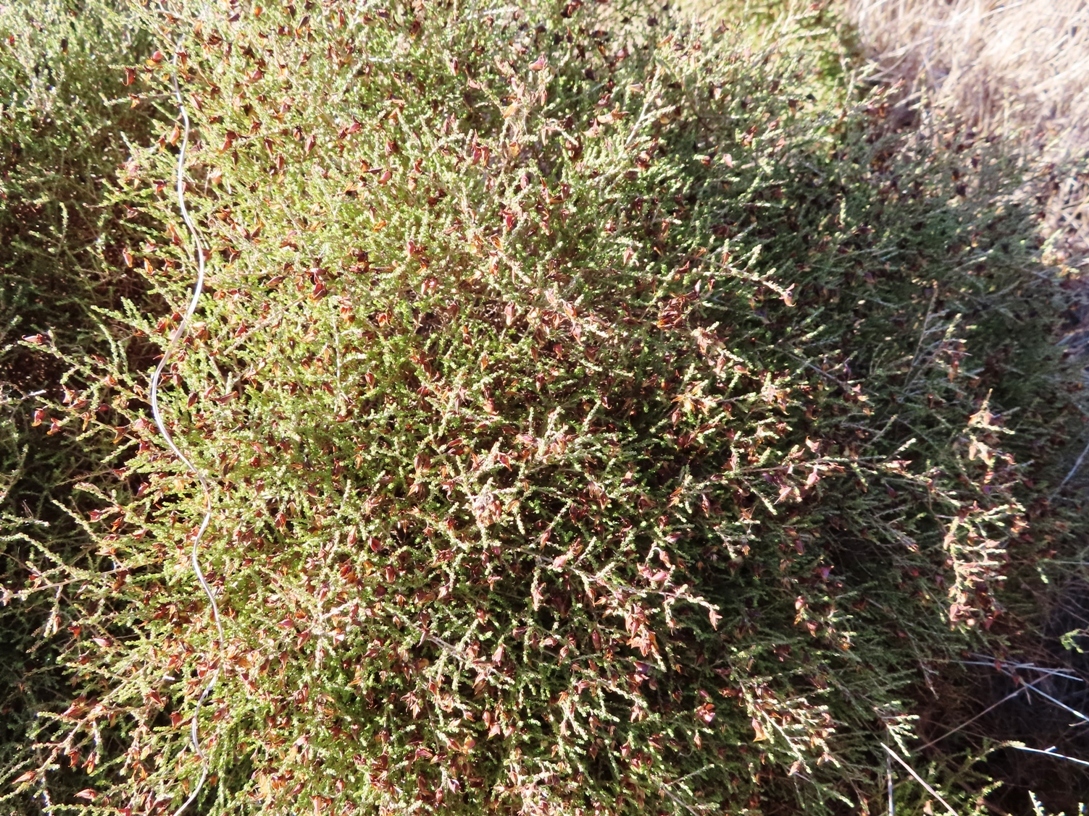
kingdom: Plantae
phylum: Tracheophyta
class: Magnoliopsida
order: Fabales
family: Fabaceae
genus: Aspalathus
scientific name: Aspalathus recurva
